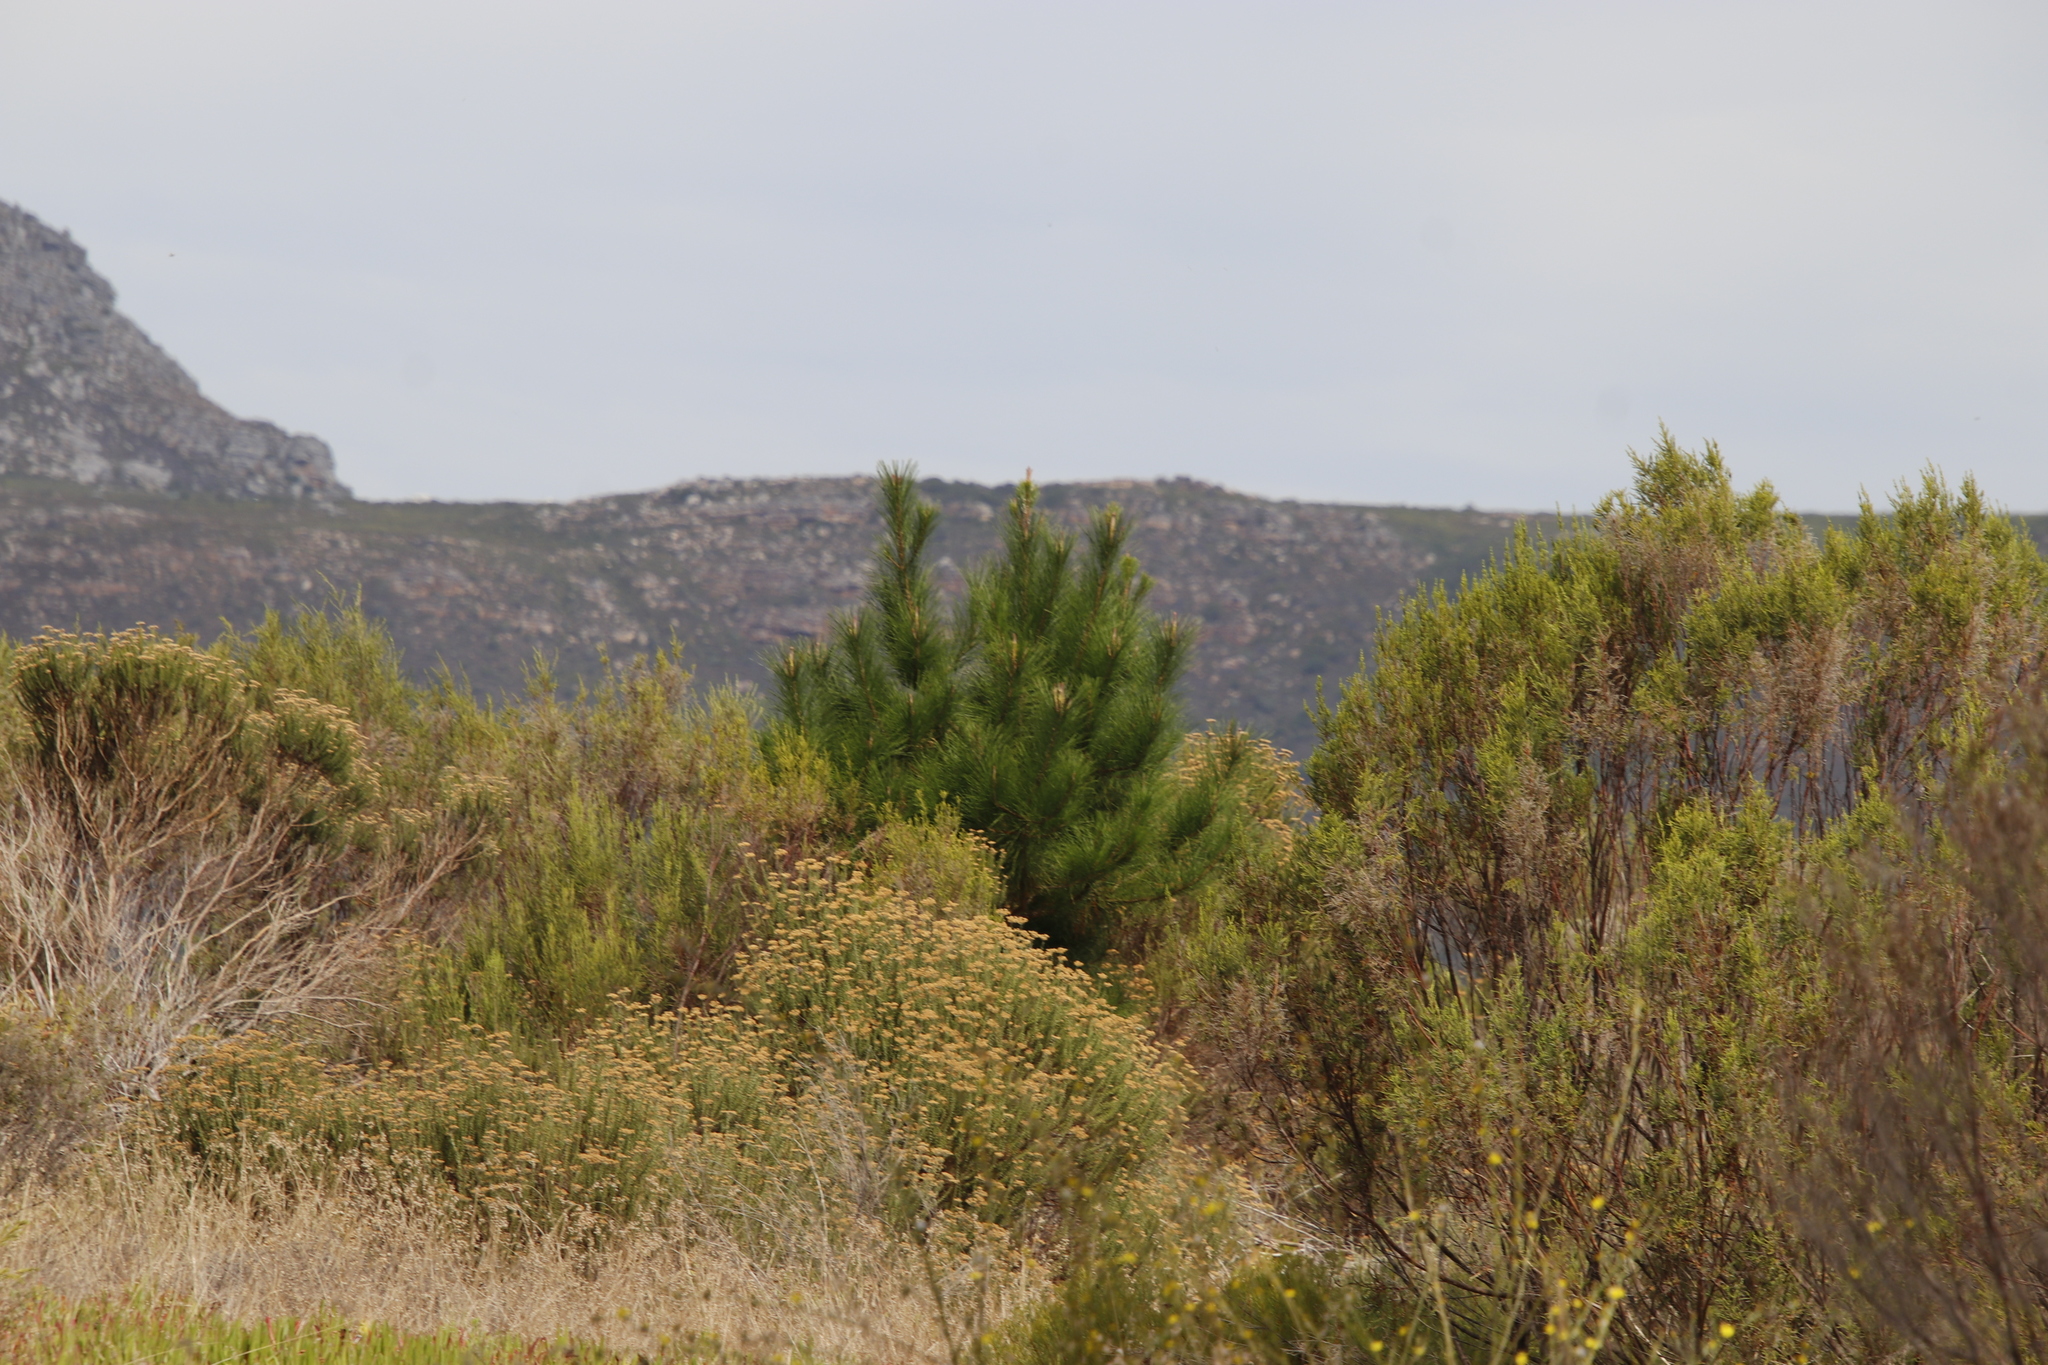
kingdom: Plantae
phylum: Tracheophyta
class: Pinopsida
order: Pinales
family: Pinaceae
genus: Pinus
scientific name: Pinus radiata
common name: Monterey pine
